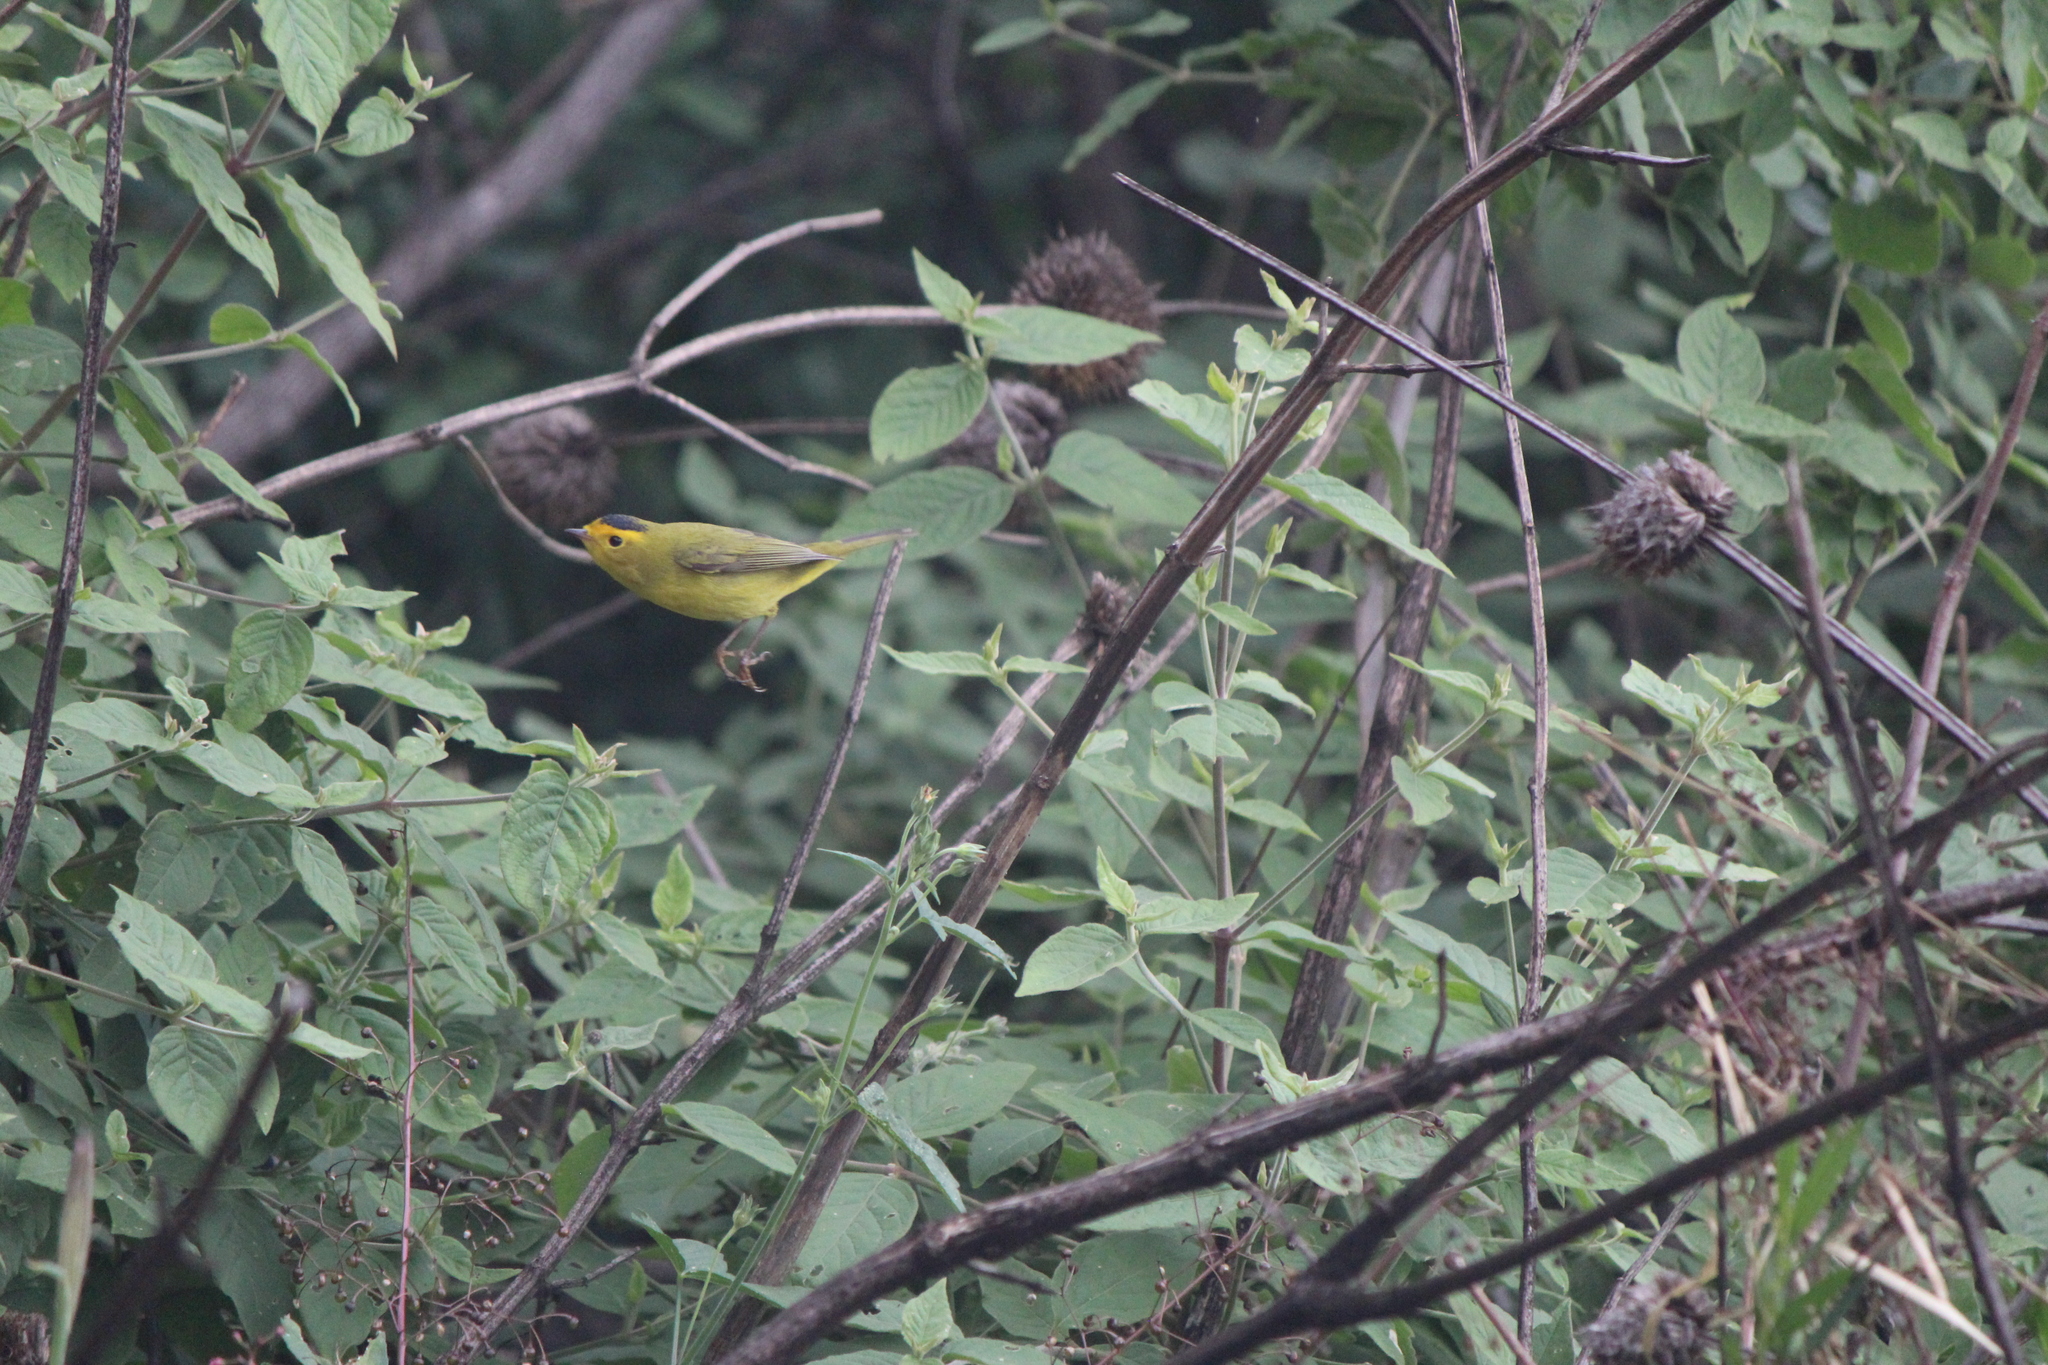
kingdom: Animalia
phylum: Chordata
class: Aves
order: Passeriformes
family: Parulidae
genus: Cardellina
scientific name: Cardellina pusilla
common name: Wilson's warbler
